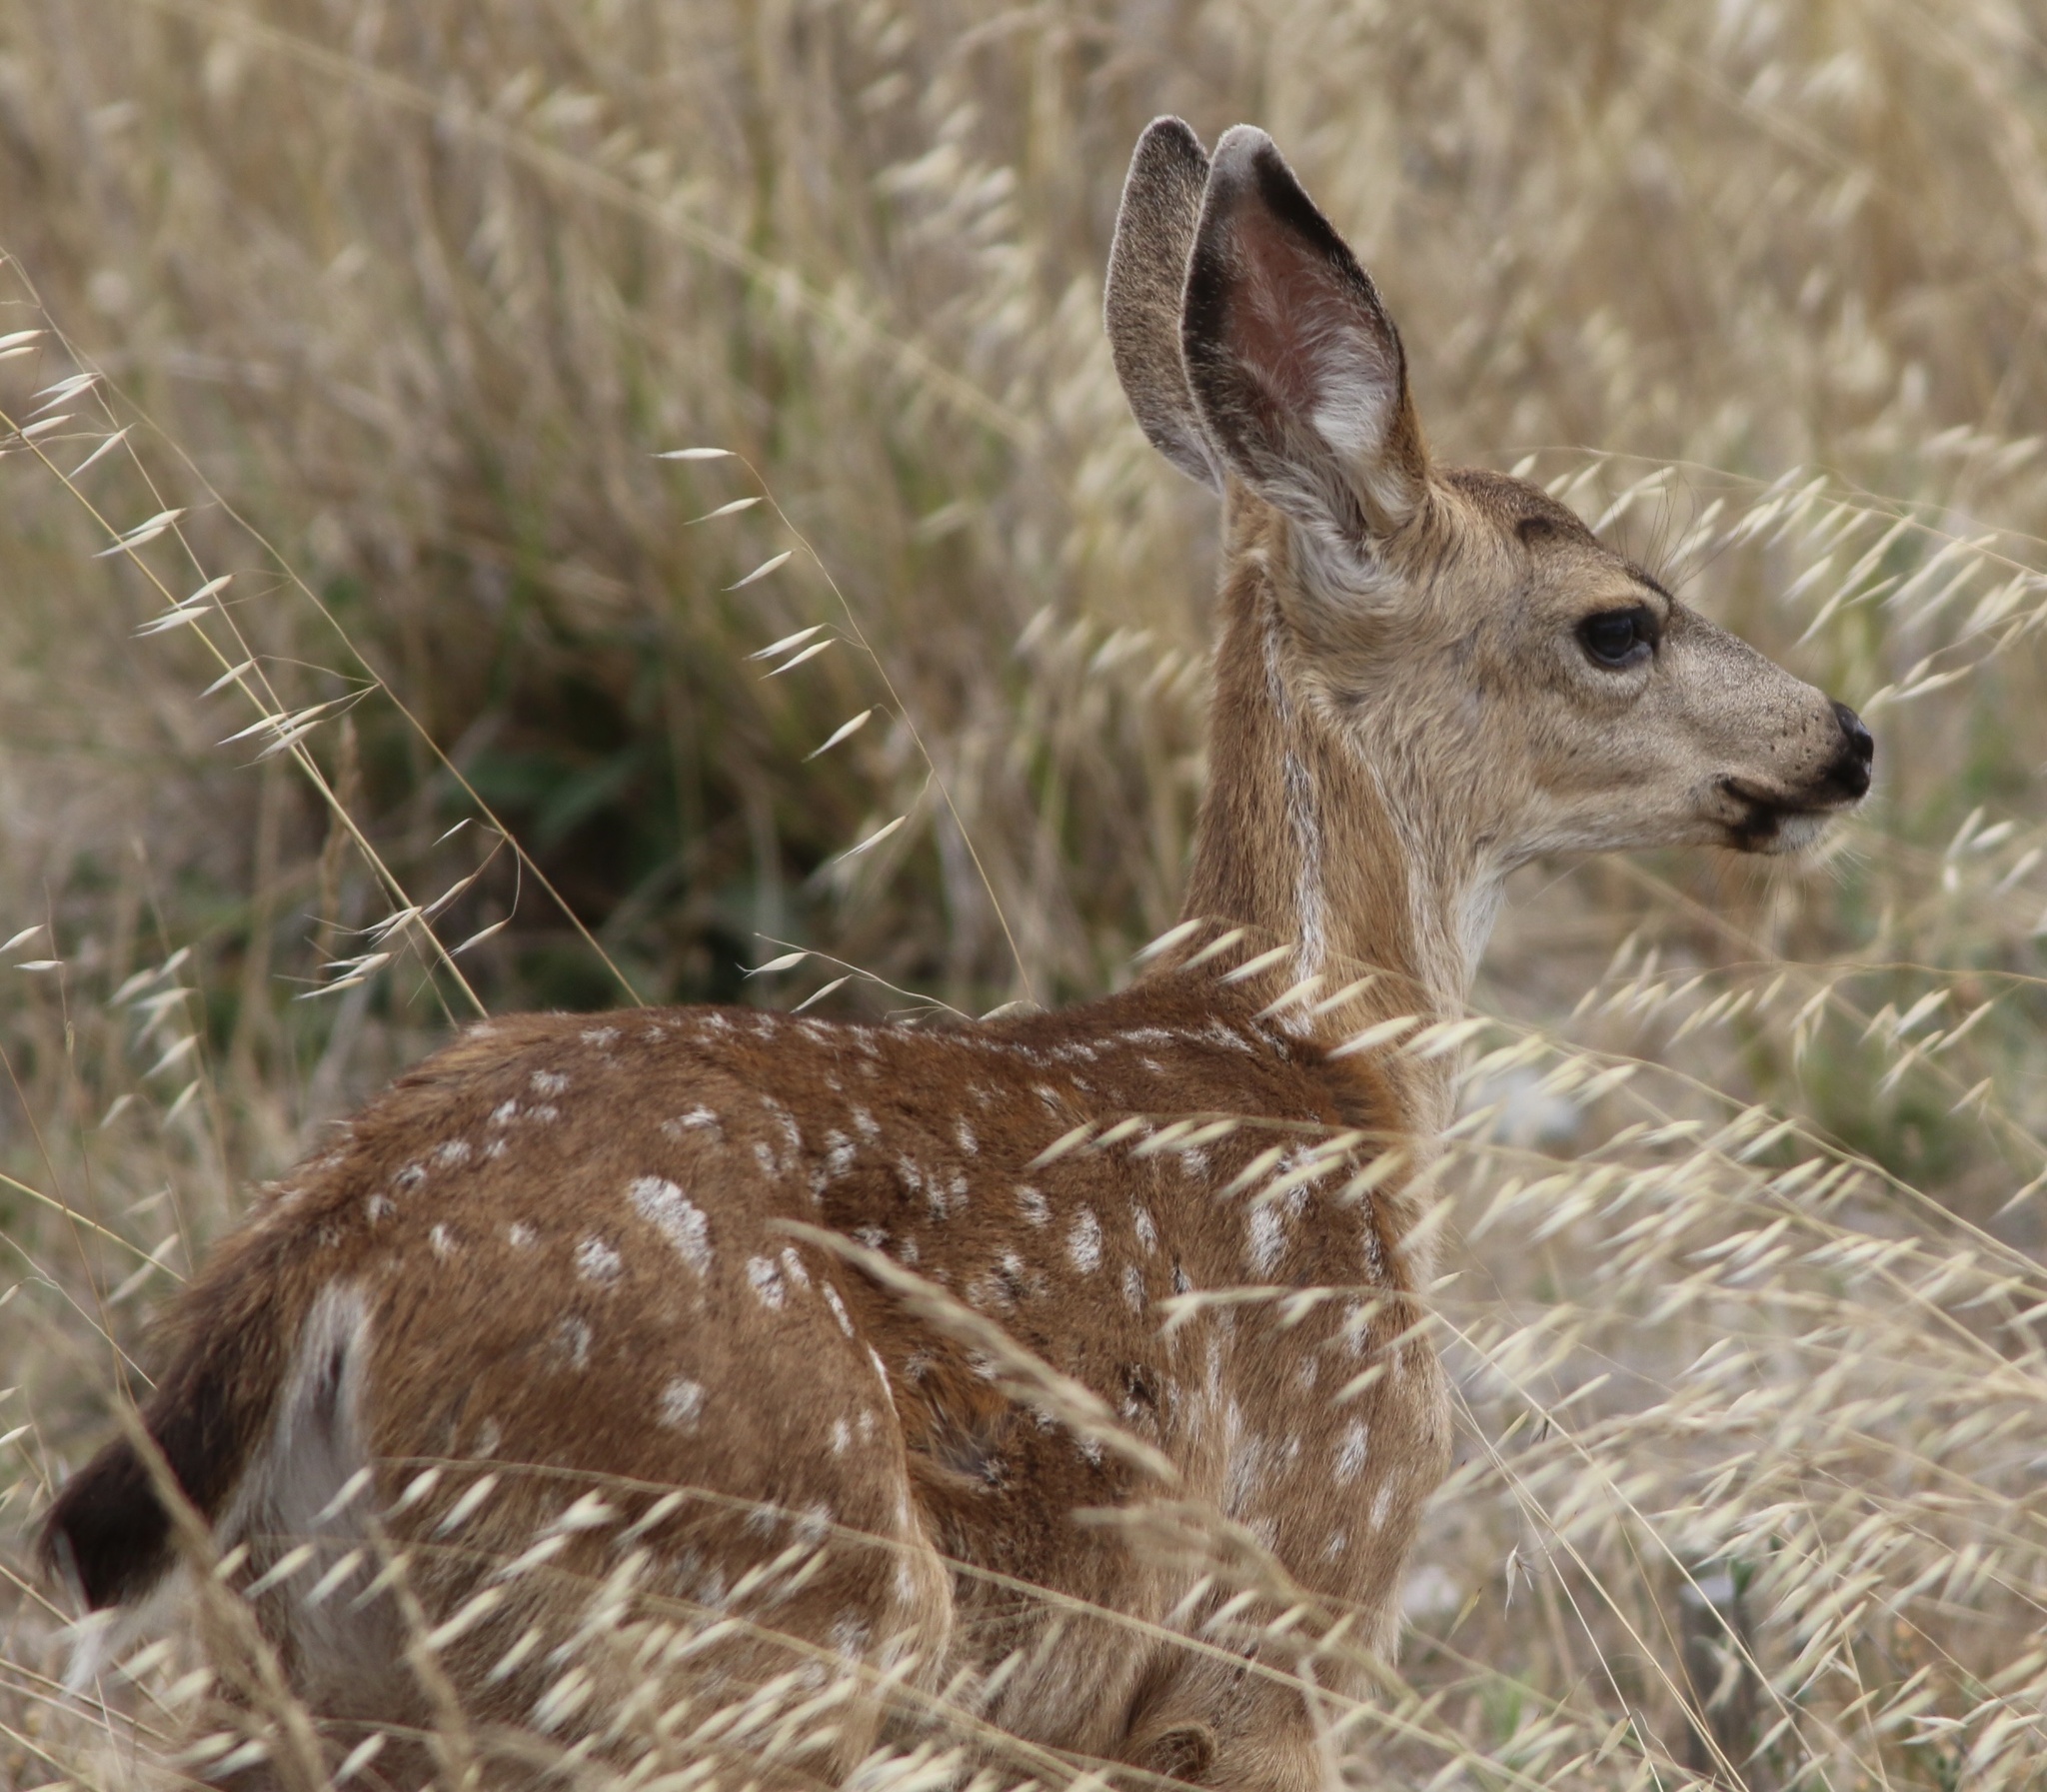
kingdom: Animalia
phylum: Chordata
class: Mammalia
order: Artiodactyla
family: Cervidae
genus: Odocoileus
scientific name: Odocoileus hemionus
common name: Mule deer
